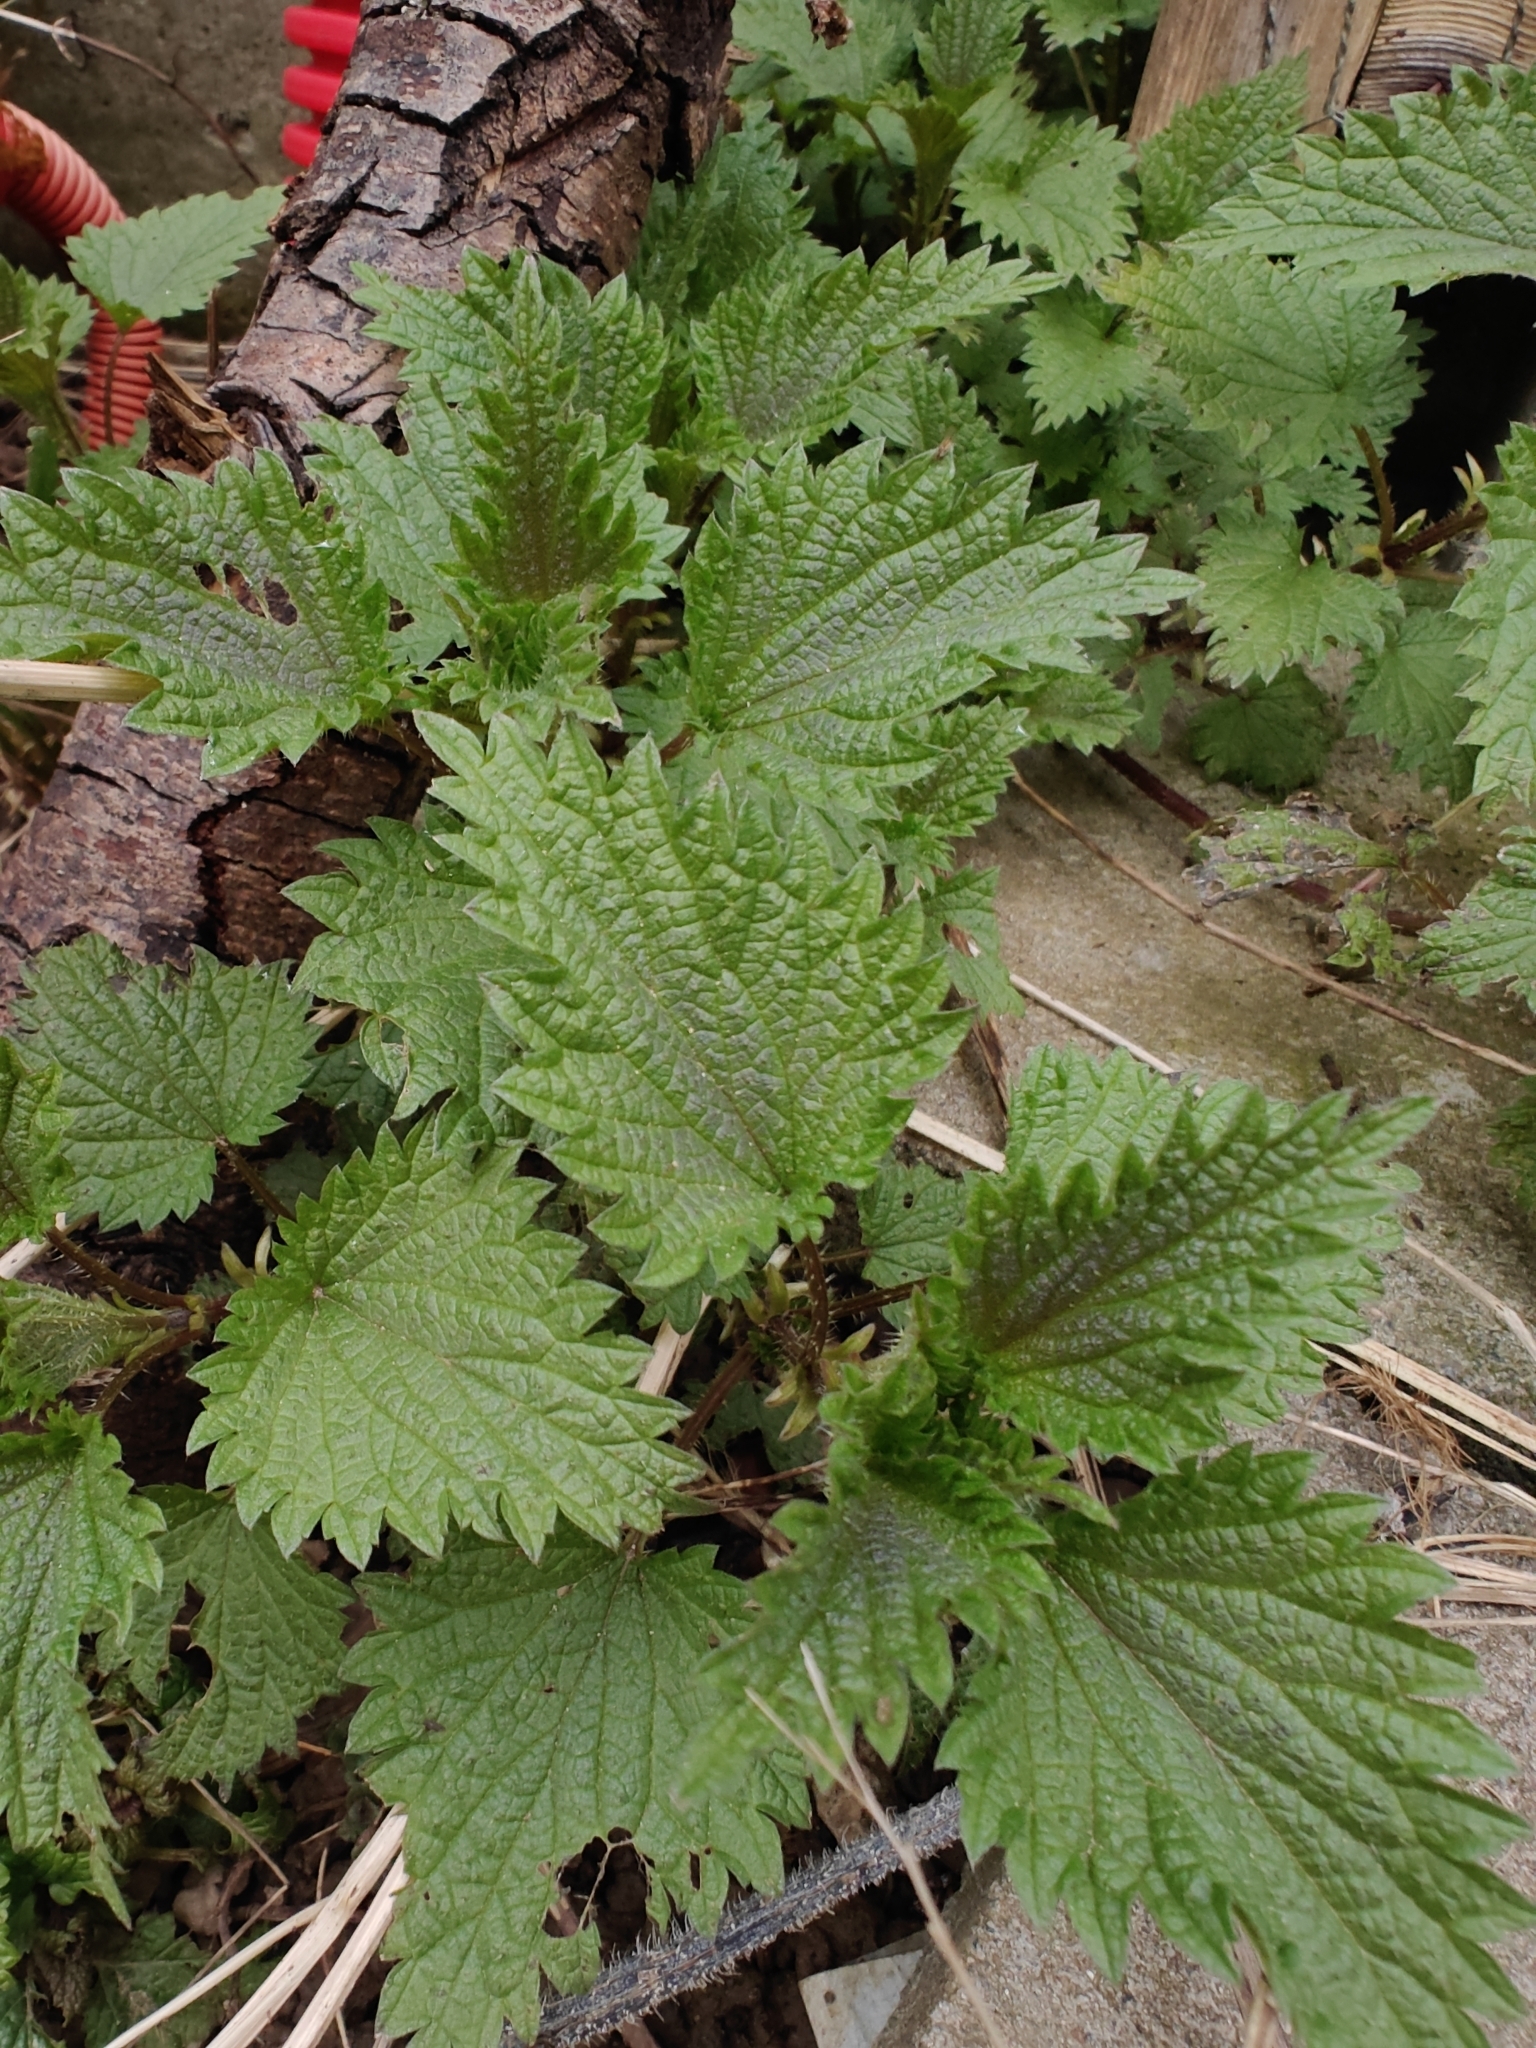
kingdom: Plantae
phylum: Tracheophyta
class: Magnoliopsida
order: Rosales
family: Urticaceae
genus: Urtica
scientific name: Urtica dioica
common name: Common nettle
